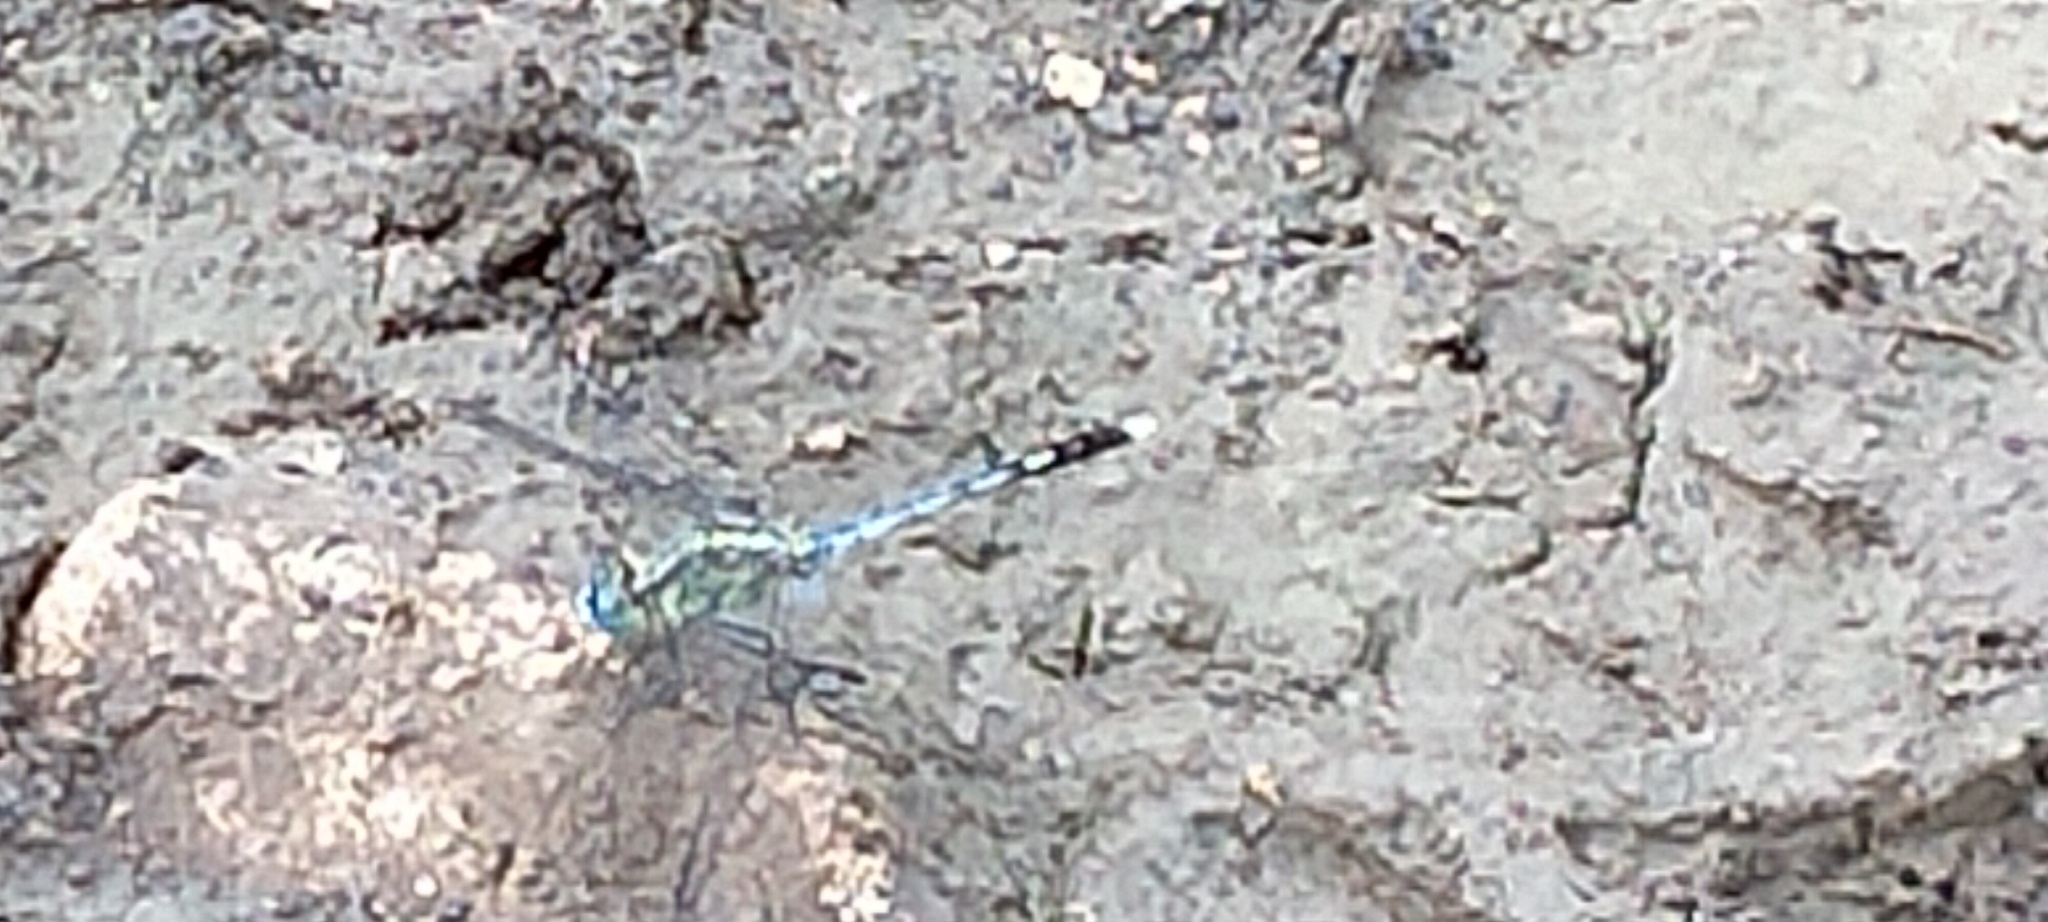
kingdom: Animalia
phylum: Arthropoda
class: Insecta
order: Odonata
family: Libellulidae
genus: Diplacodes
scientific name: Diplacodes trivialis
